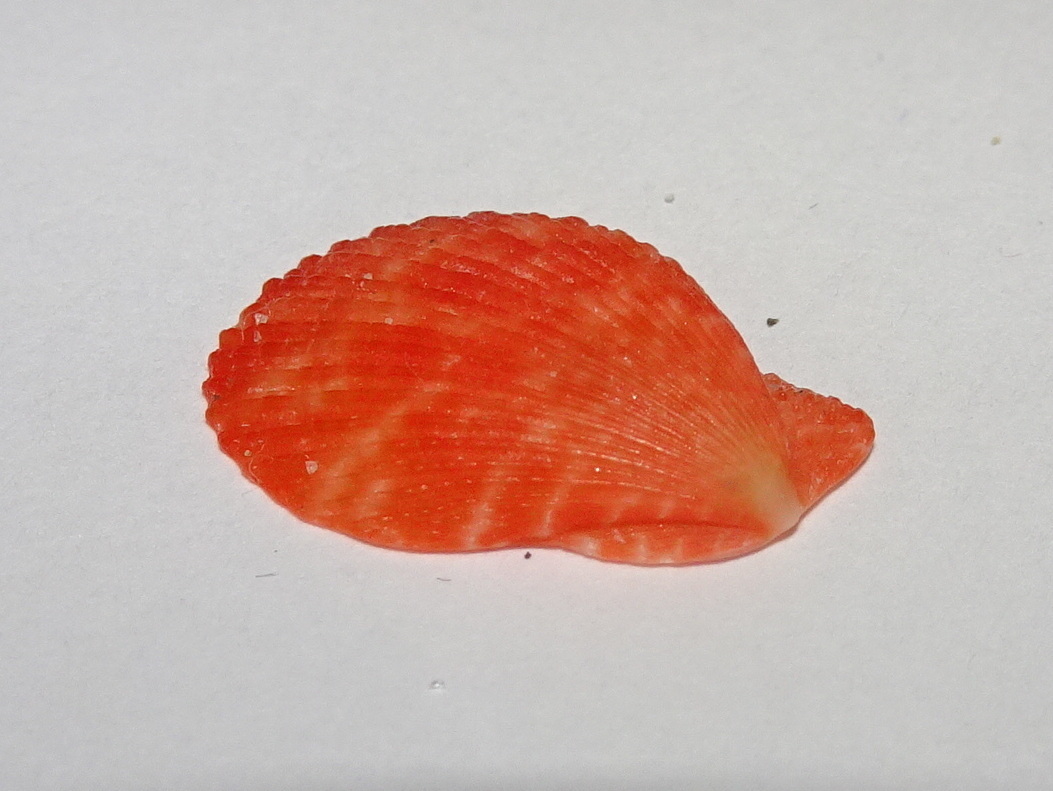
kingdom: Animalia
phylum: Mollusca
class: Bivalvia
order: Pectinida
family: Pectinidae
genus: Talochlamys
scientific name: Talochlamys multistriata
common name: Tinted scallop
